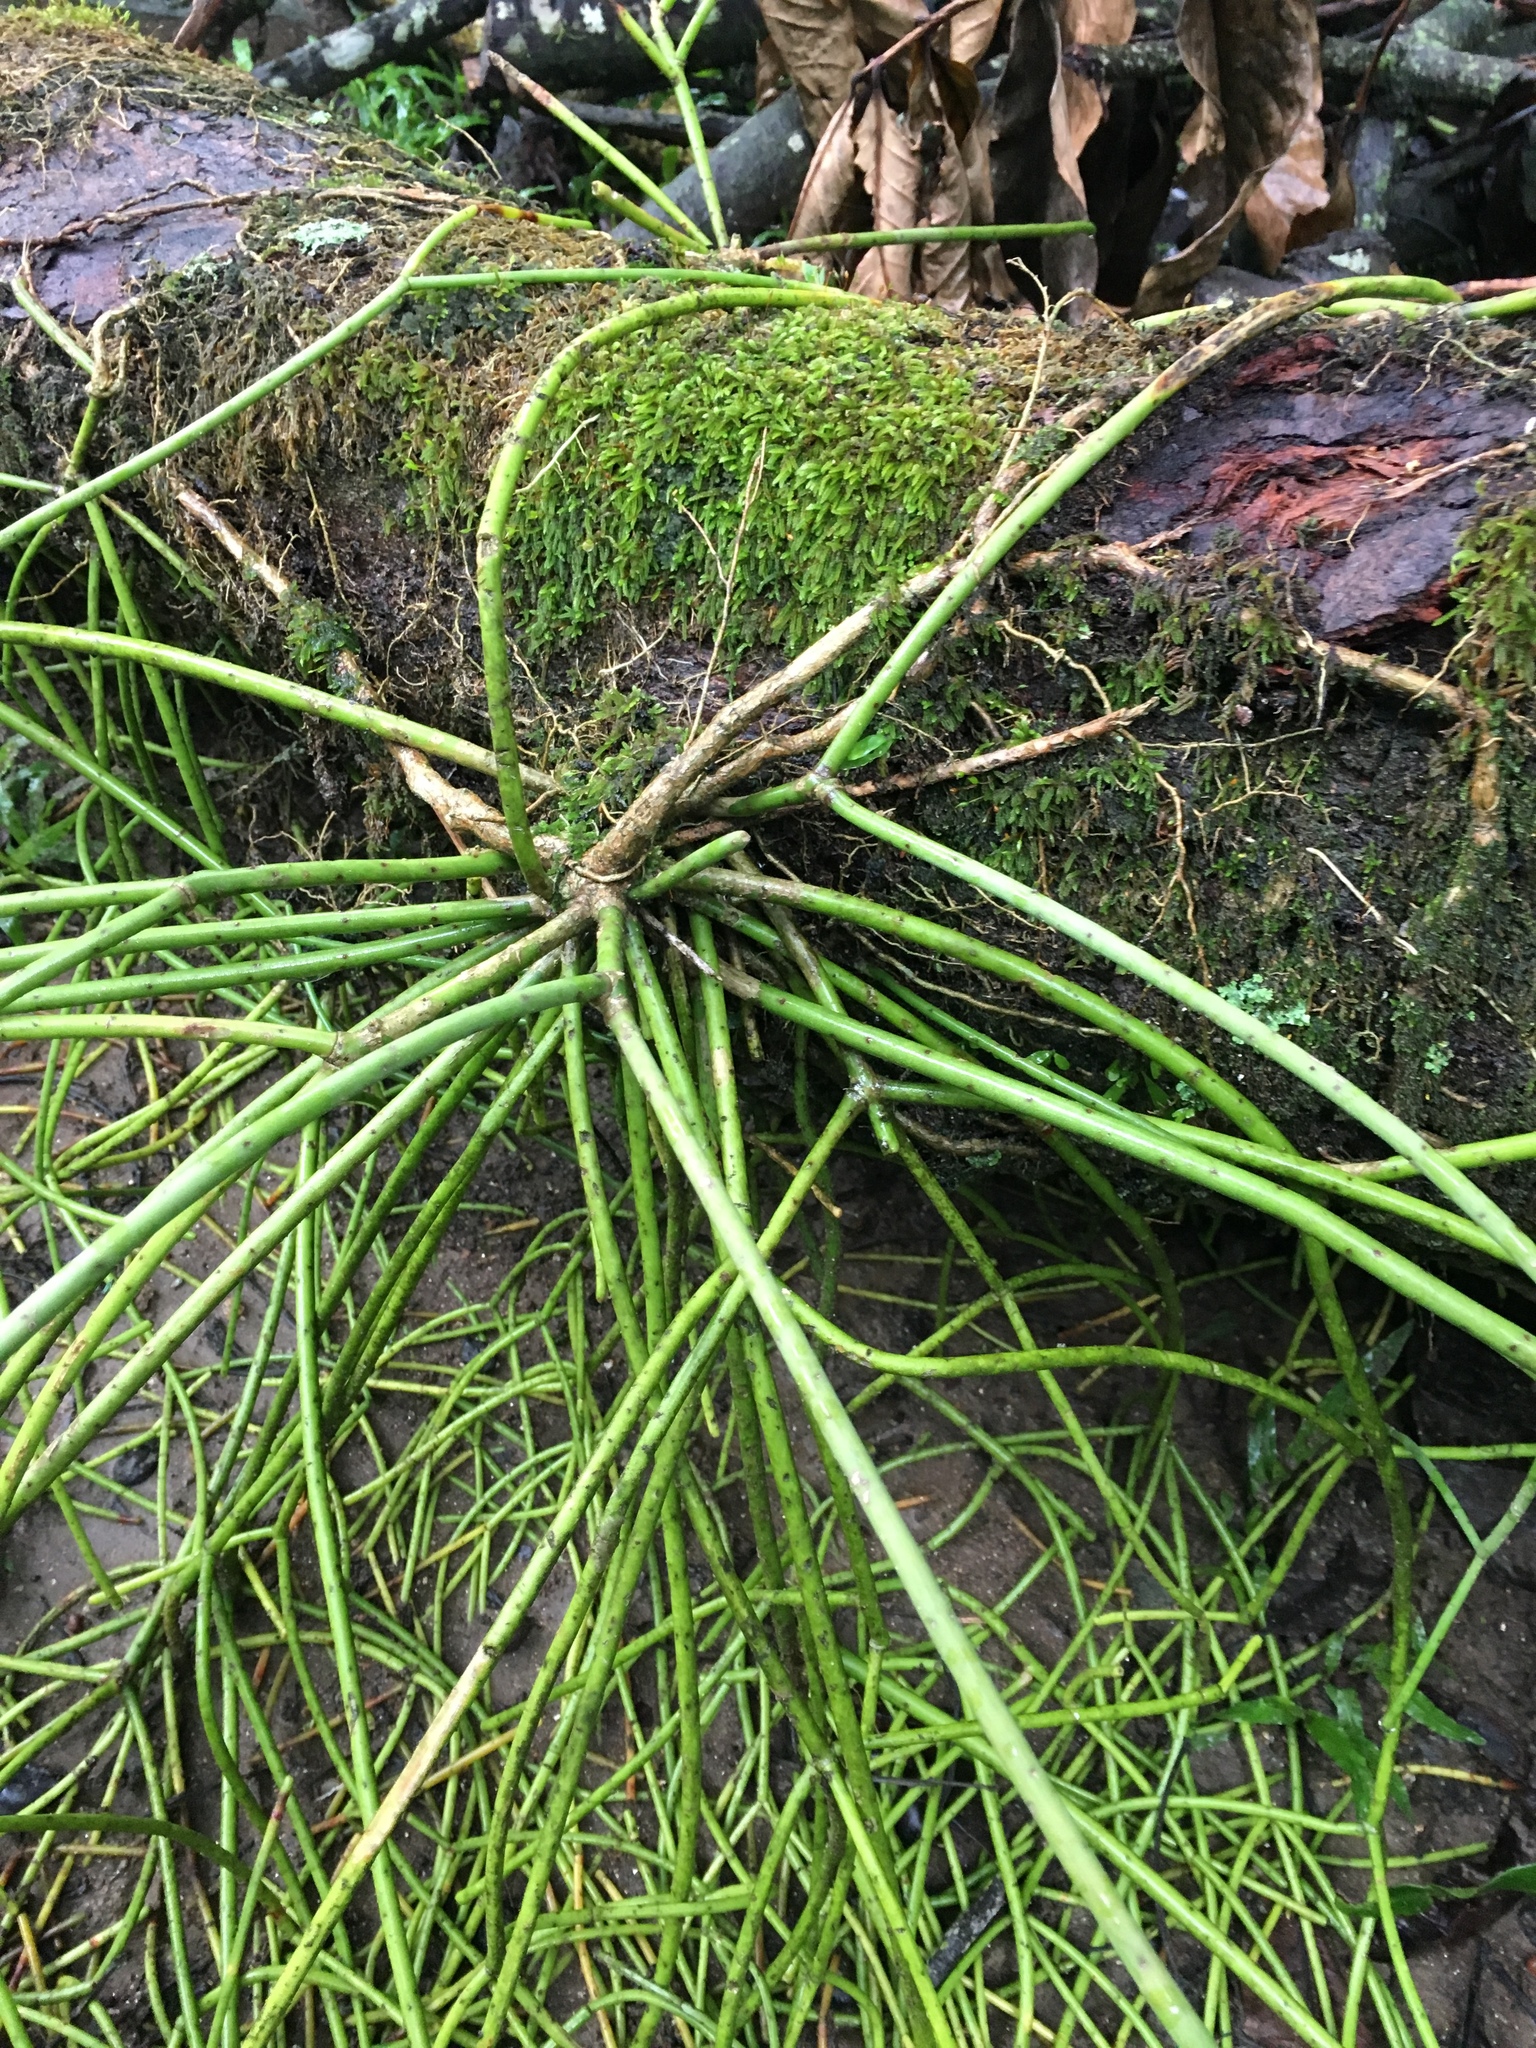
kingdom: Plantae
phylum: Tracheophyta
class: Magnoliopsida
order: Caryophyllales
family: Cactaceae
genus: Rhipsalis
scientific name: Rhipsalis baccifera
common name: Mistletoe cactus
